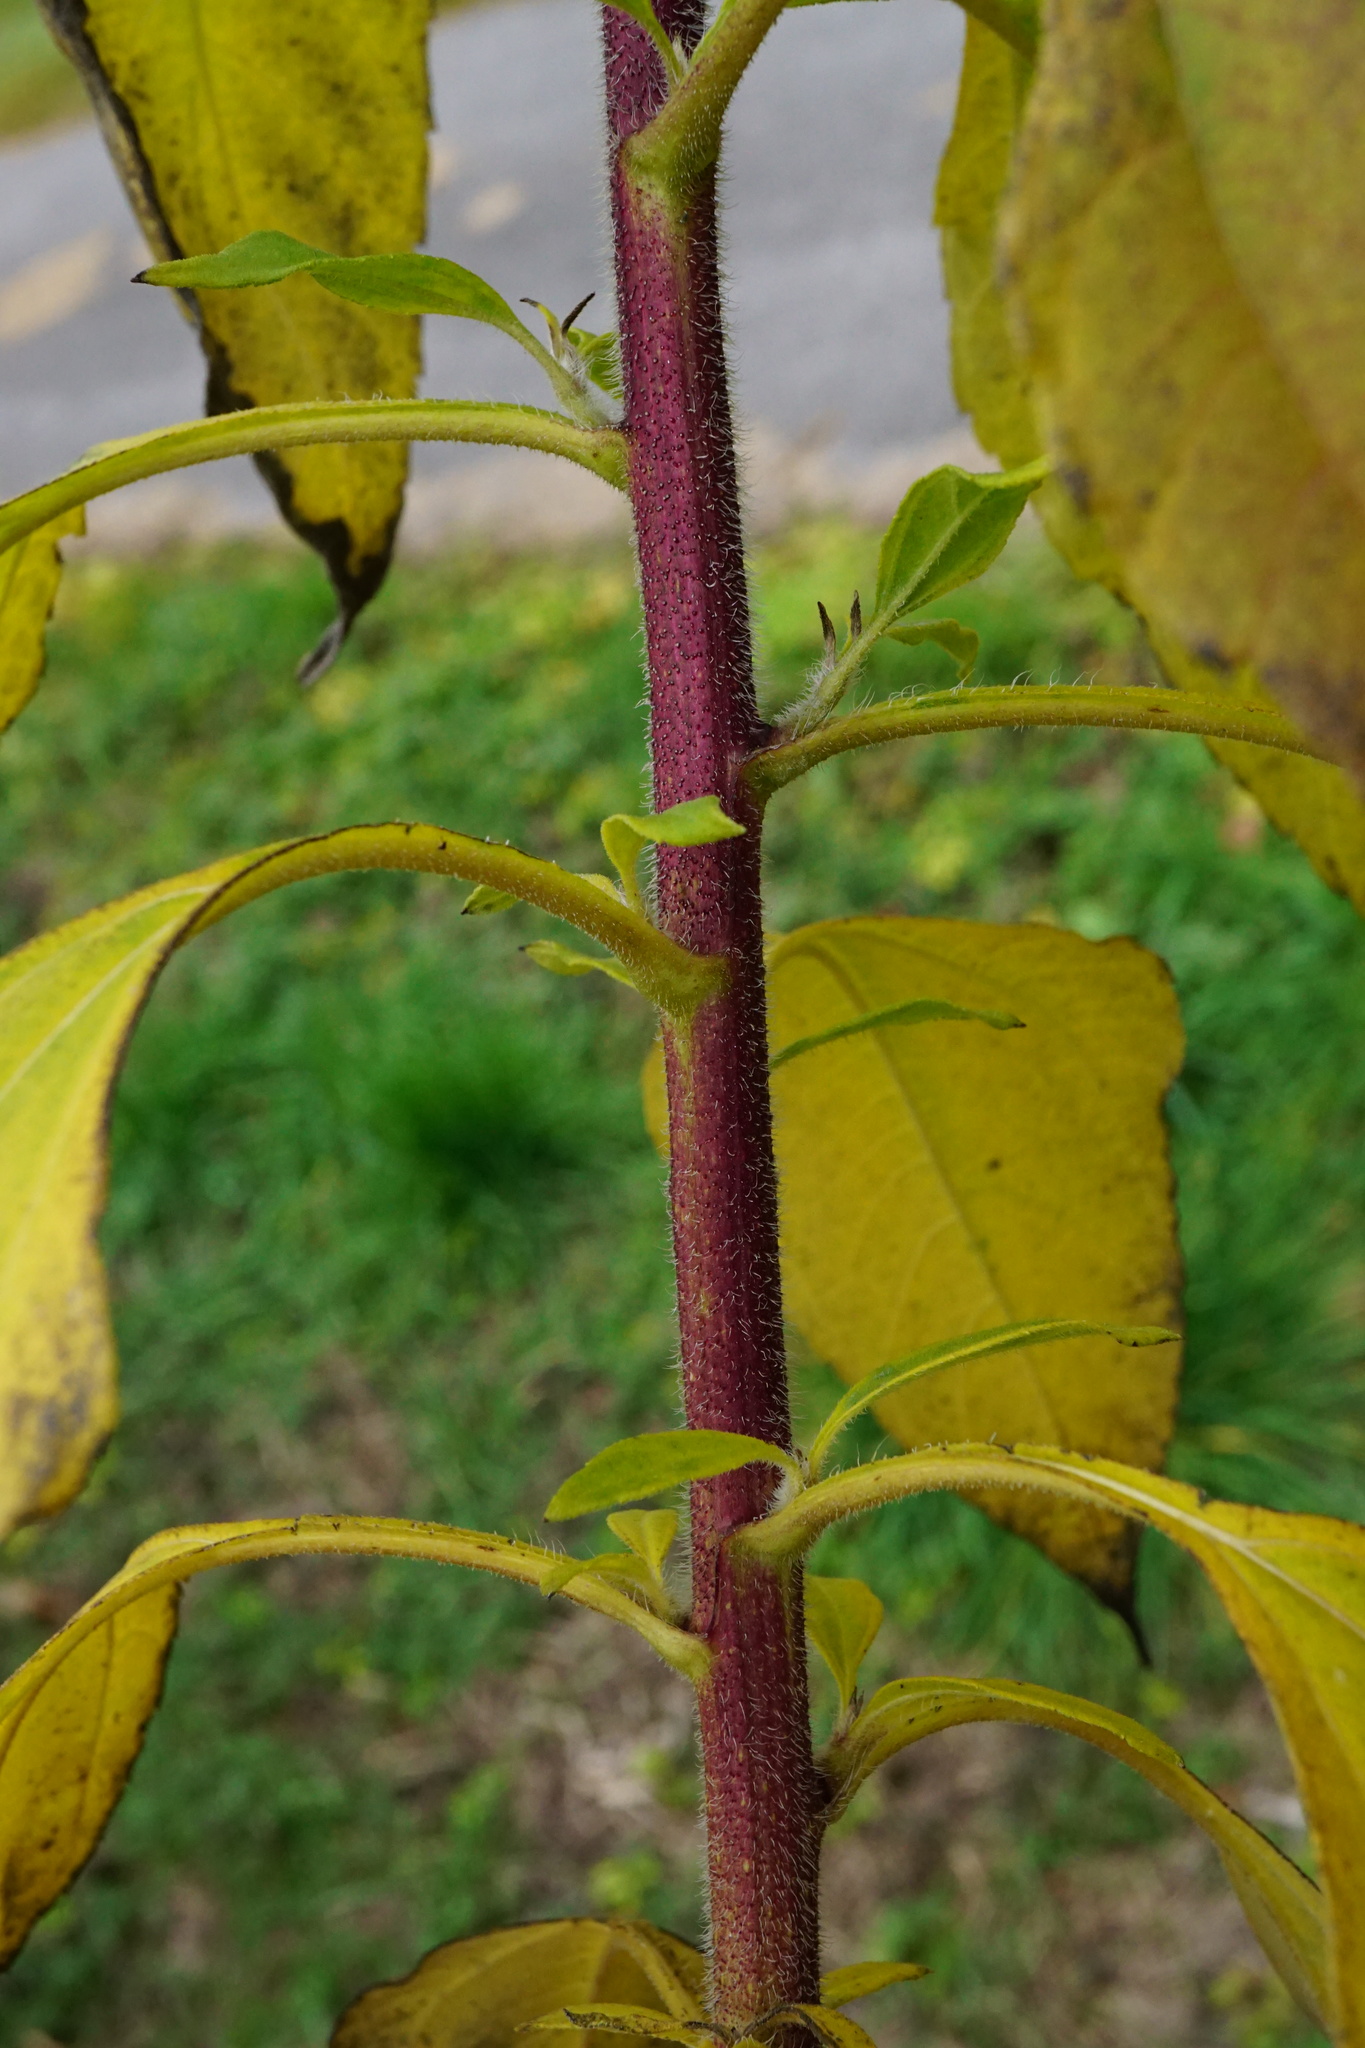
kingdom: Plantae
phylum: Tracheophyta
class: Magnoliopsida
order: Asterales
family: Asteraceae
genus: Helianthus
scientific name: Helianthus tuberosus
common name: Jerusalem artichoke
